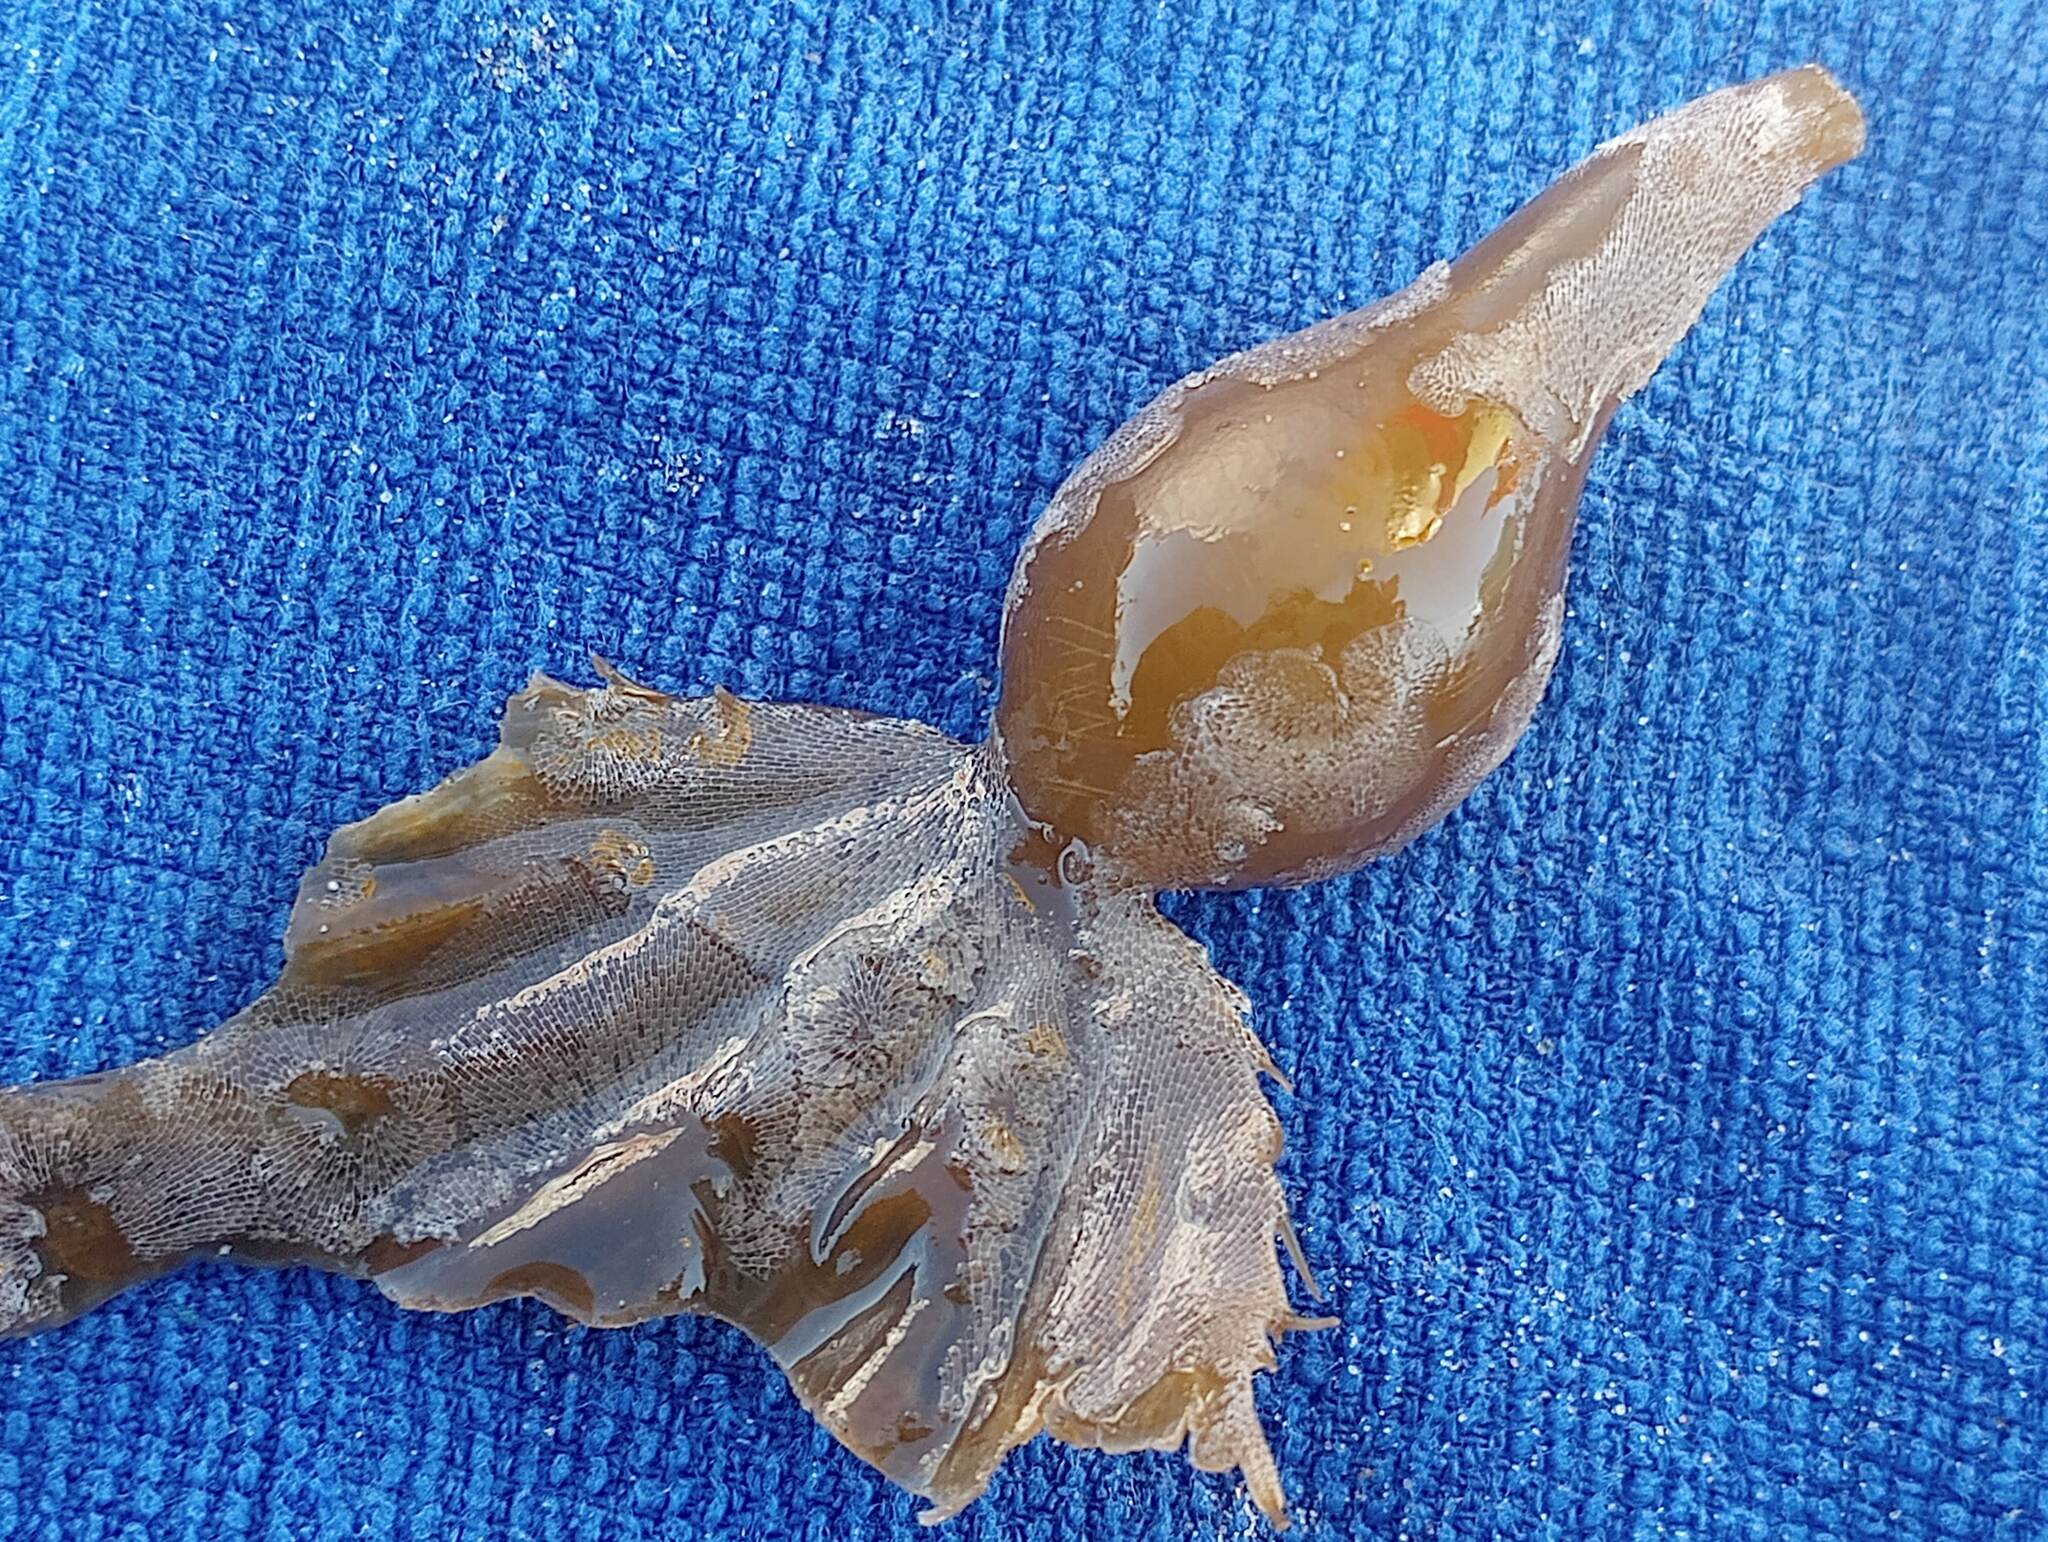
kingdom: Chromista
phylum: Ochrophyta
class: Phaeophyceae
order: Laminariales
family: Laminariaceae
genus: Macrocystis
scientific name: Macrocystis pyrifera
